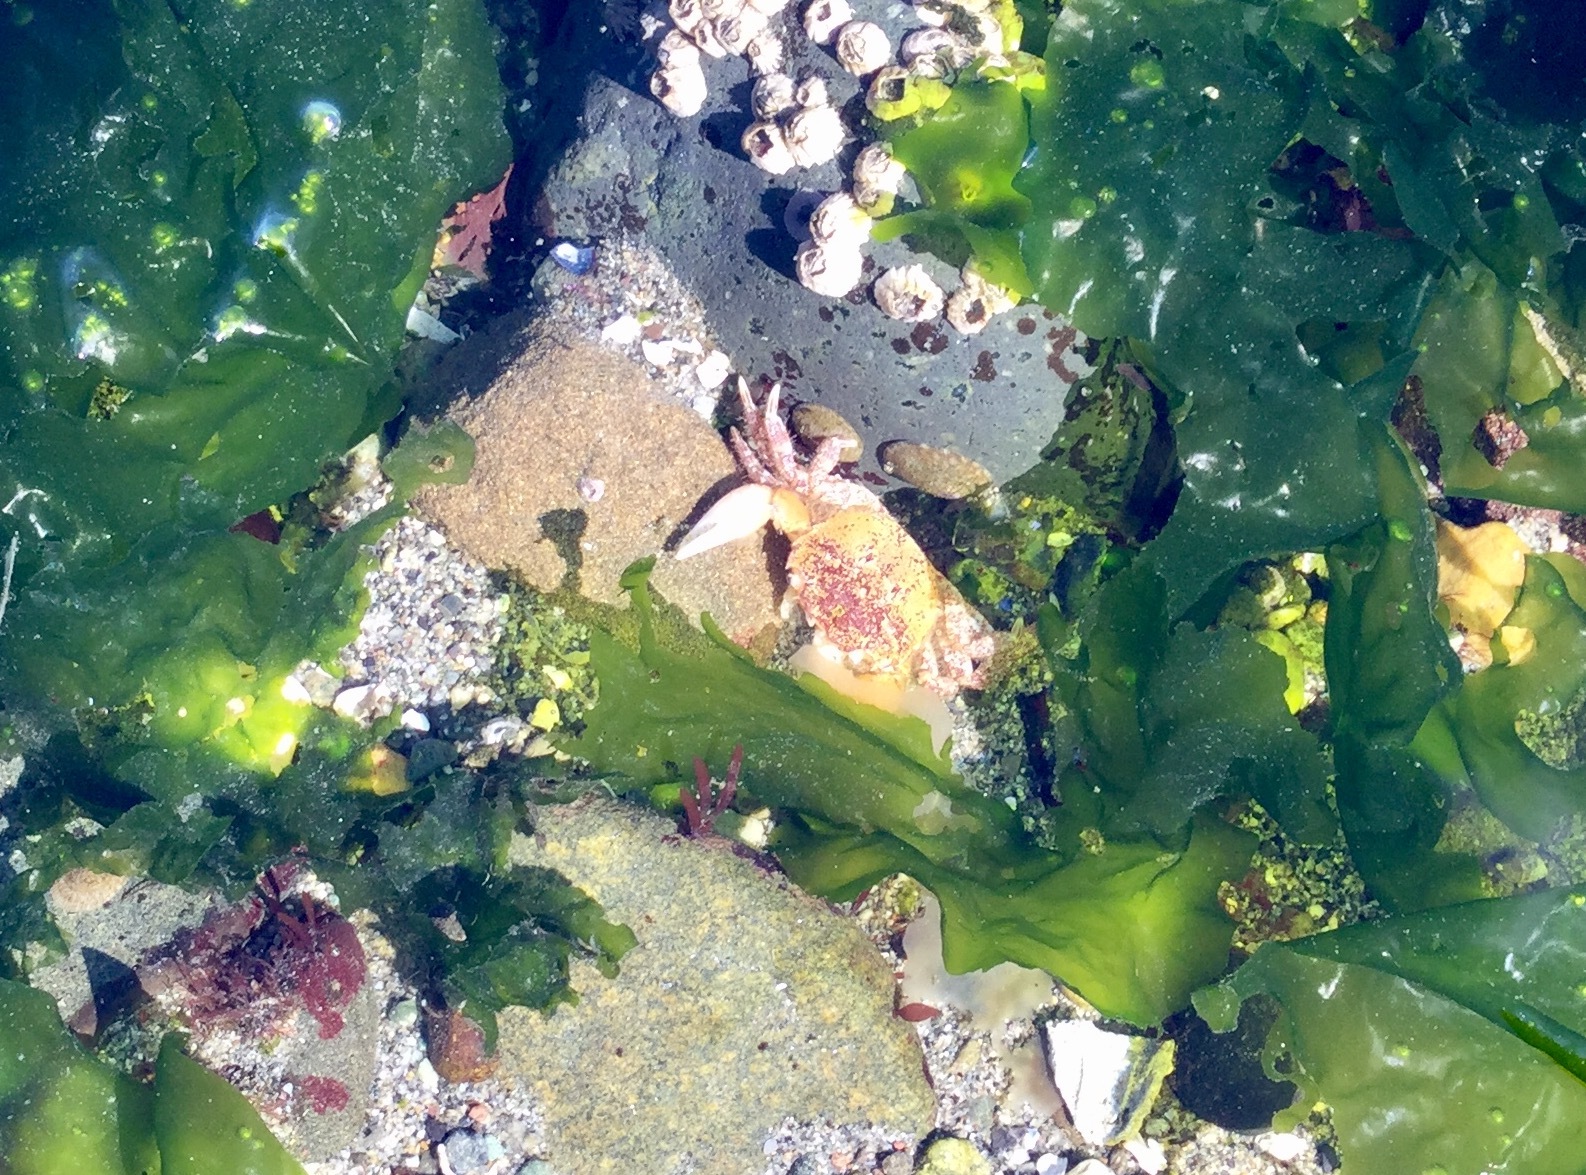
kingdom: Animalia
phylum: Arthropoda
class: Malacostraca
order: Decapoda
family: Varunidae
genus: Hemigrapsus
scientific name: Hemigrapsus oregonensis
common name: Yellow shore crab
